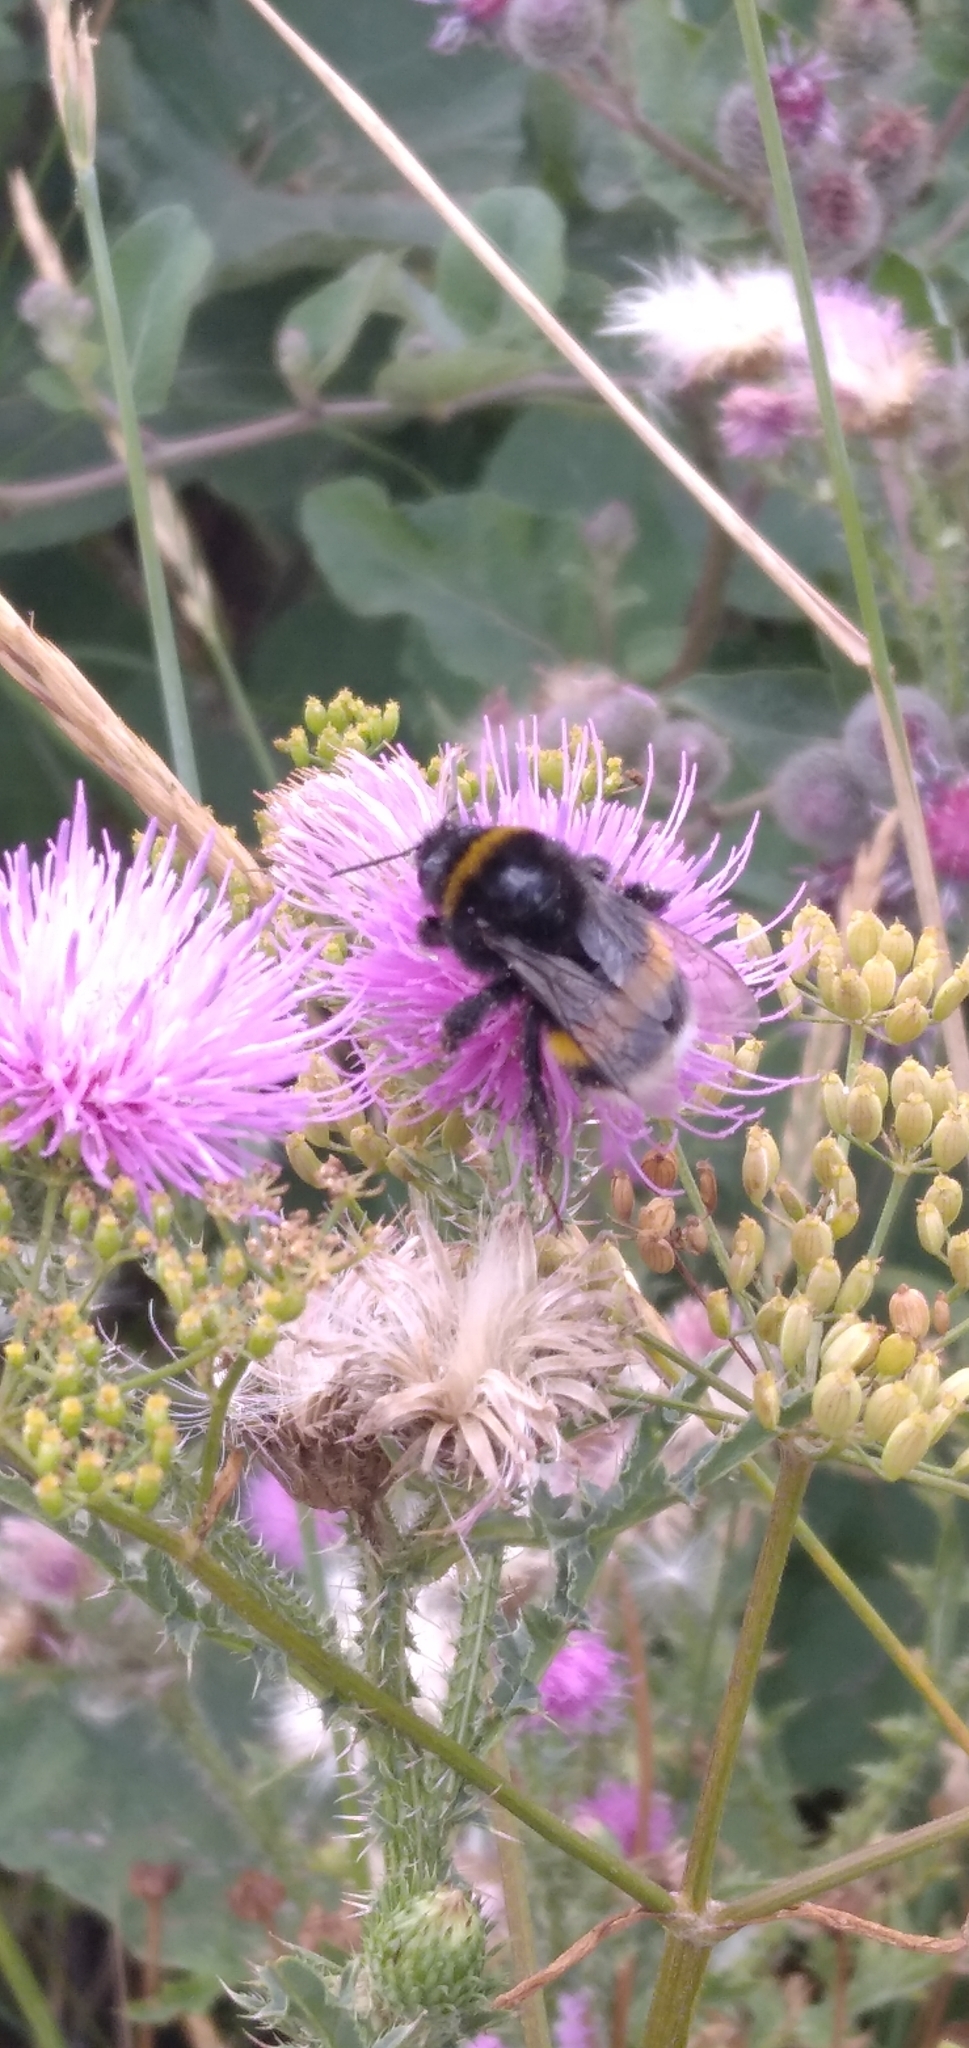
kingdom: Animalia
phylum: Arthropoda
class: Insecta
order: Hymenoptera
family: Apidae
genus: Bombus
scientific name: Bombus terrestris
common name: Buff-tailed bumblebee
